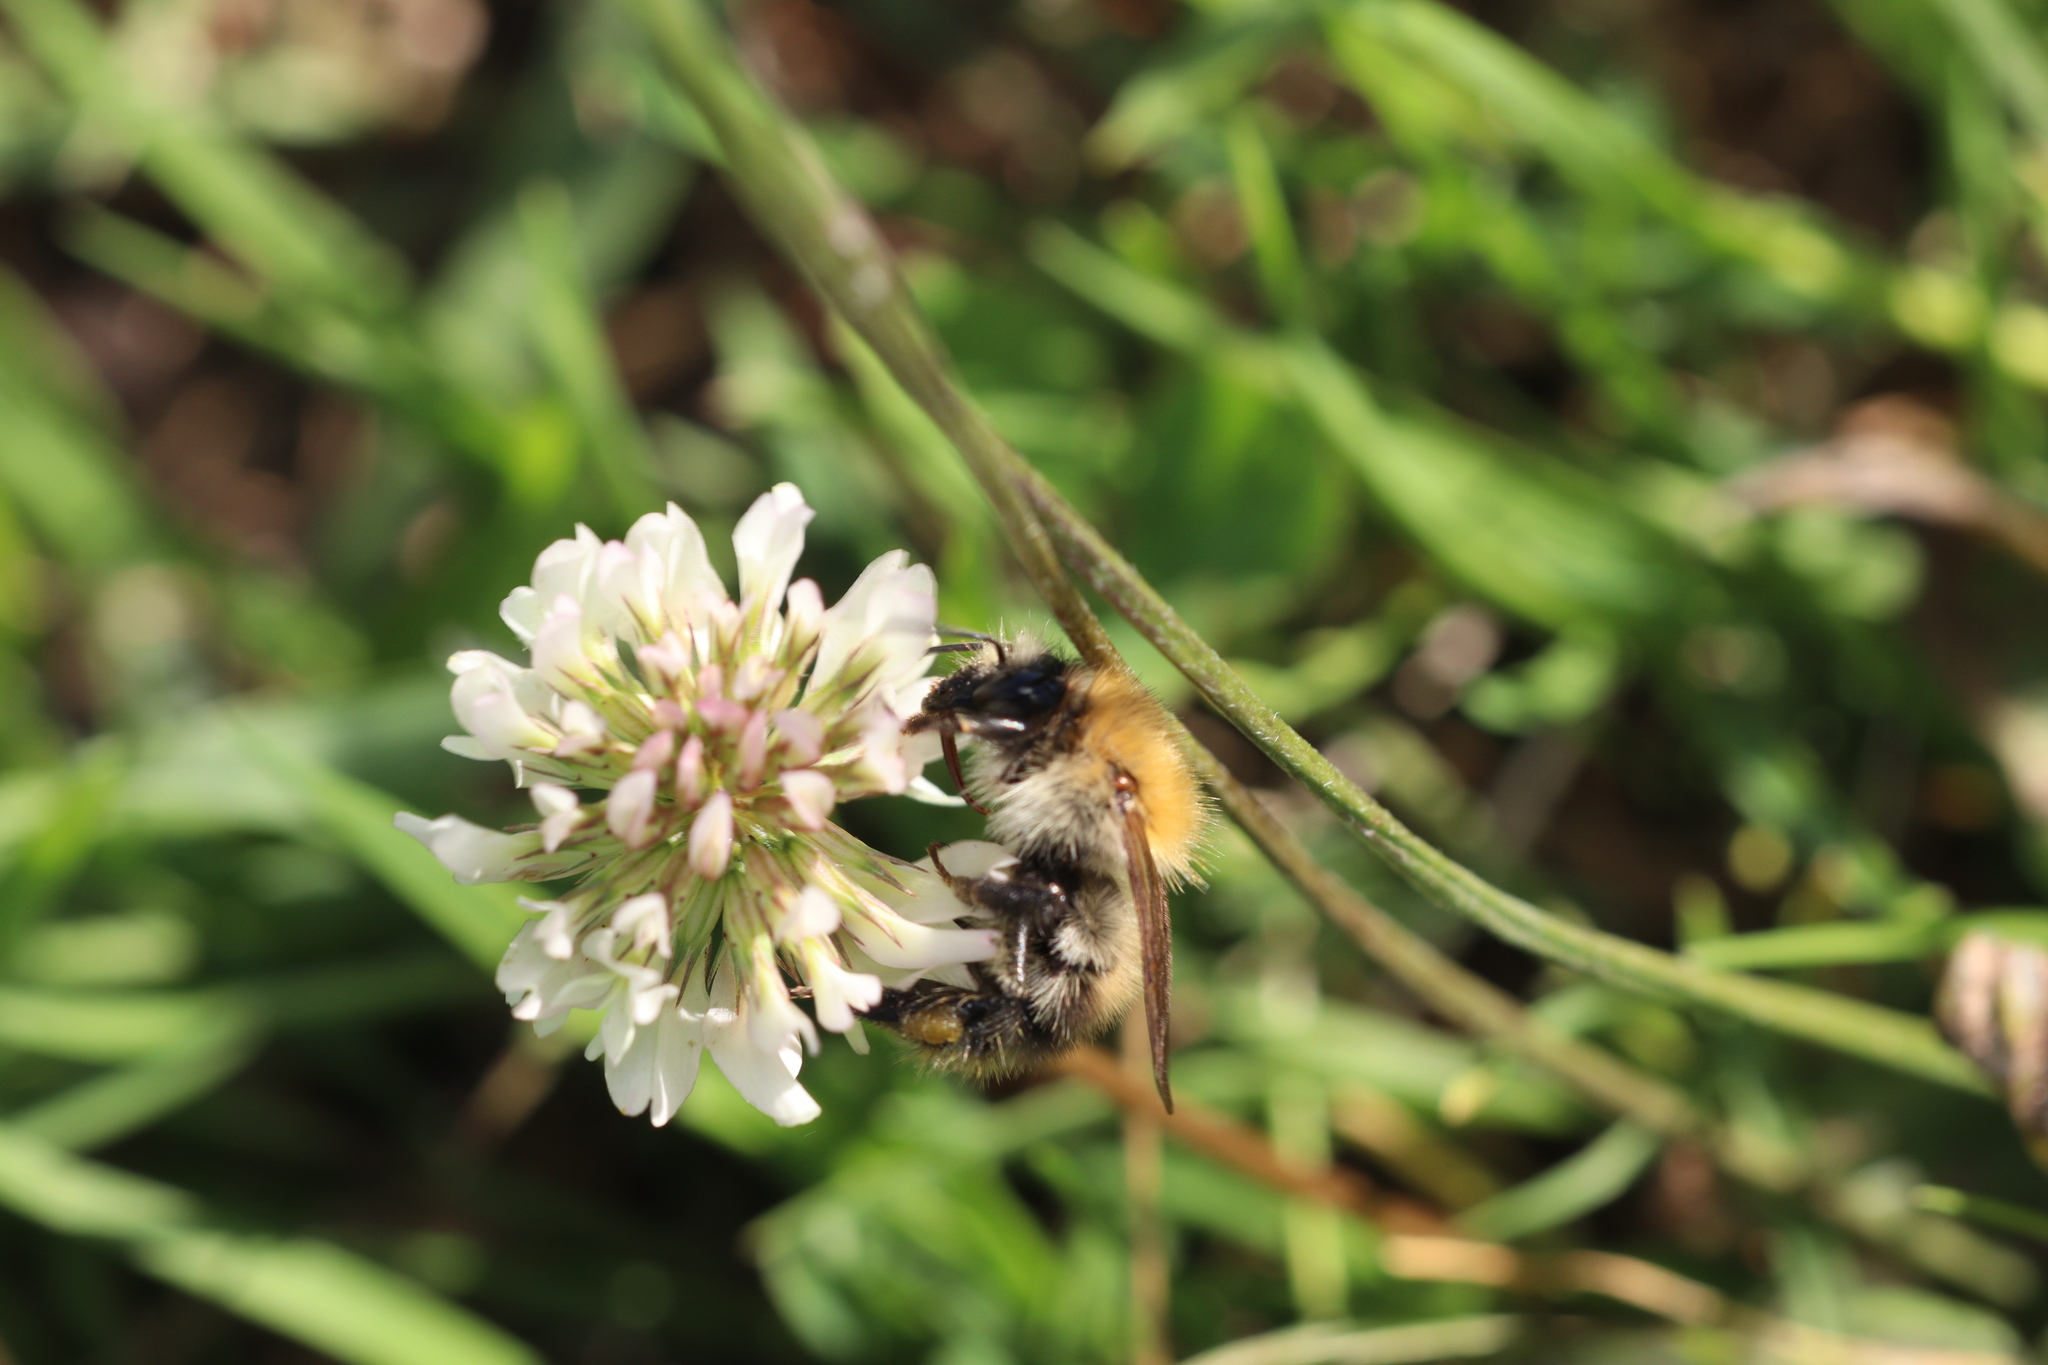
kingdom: Animalia
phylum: Arthropoda
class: Insecta
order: Hymenoptera
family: Apidae
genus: Bombus
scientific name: Bombus pascuorum
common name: Common carder bee
